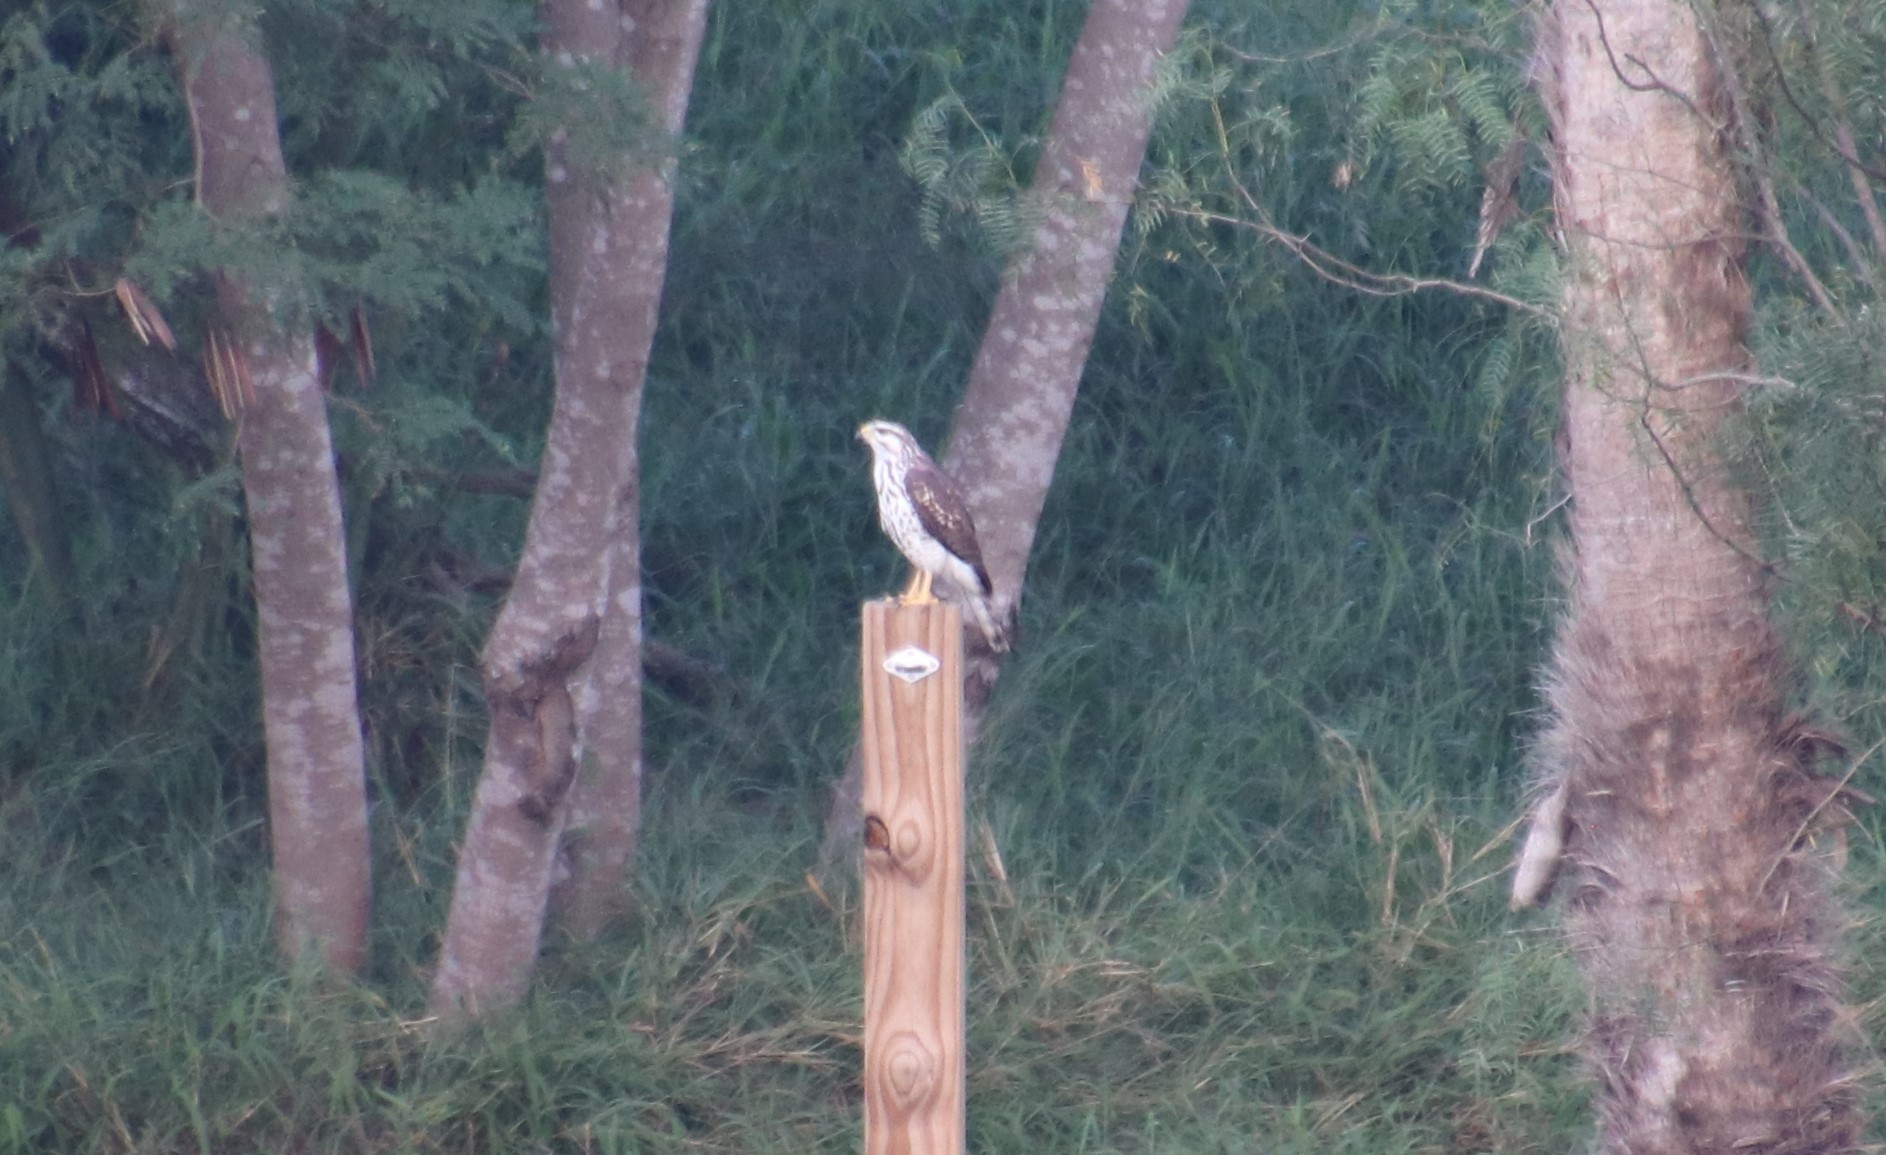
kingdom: Animalia
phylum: Chordata
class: Aves
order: Accipitriformes
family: Accipitridae
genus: Buteo
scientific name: Buteo nitidus
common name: Grey-lined hawk
